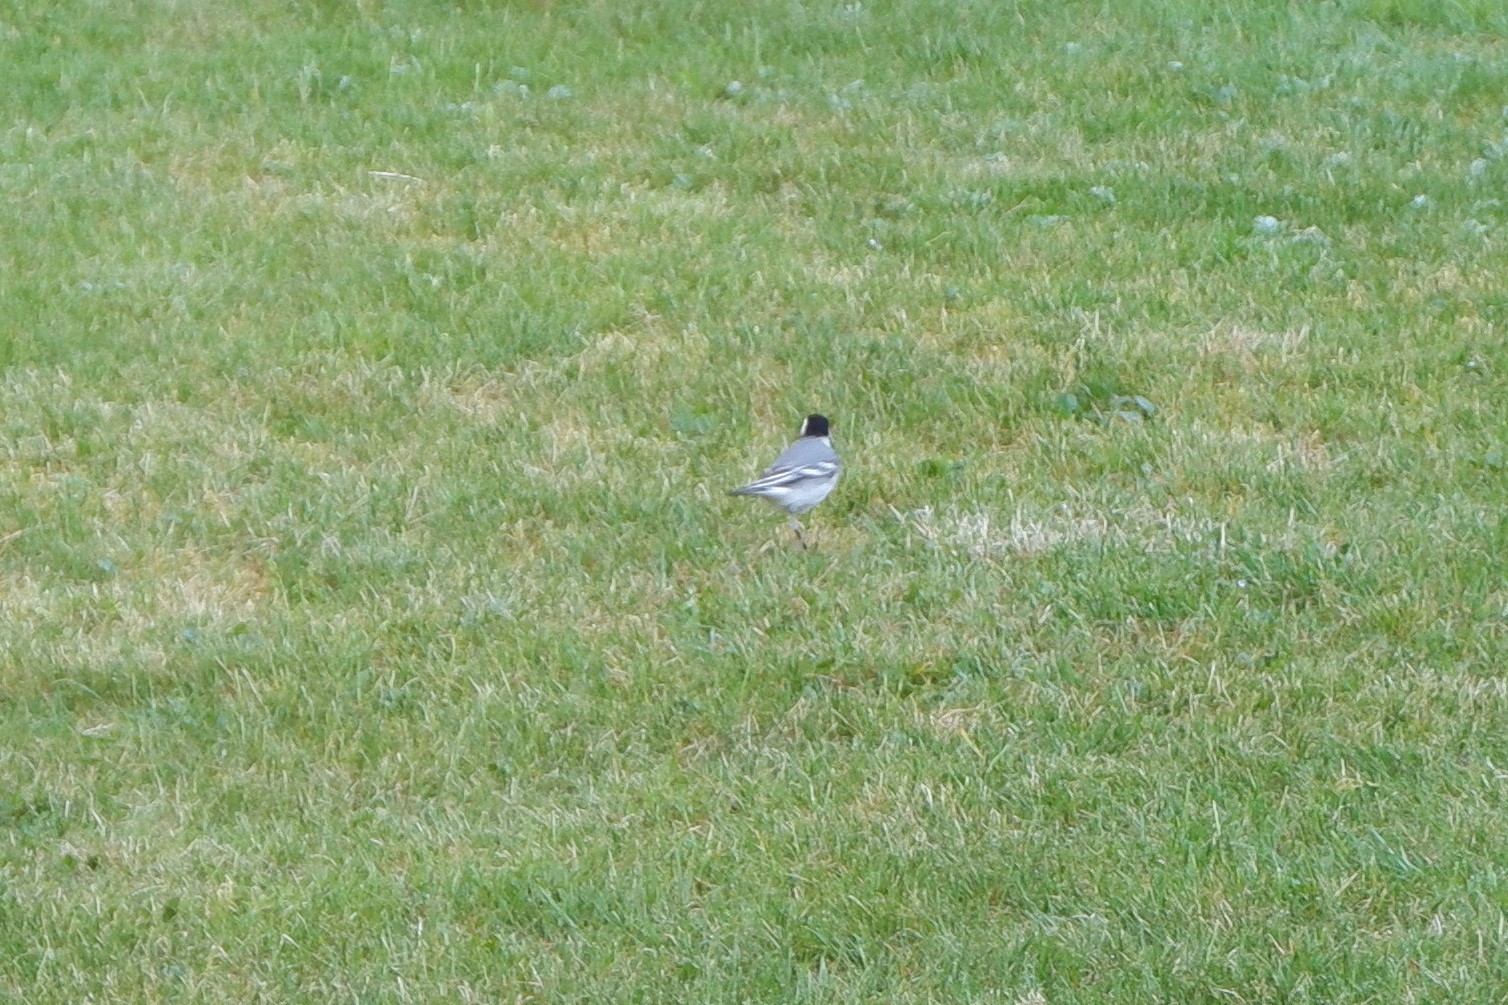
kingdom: Animalia
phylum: Chordata
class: Aves
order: Passeriformes
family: Motacillidae
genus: Motacilla
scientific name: Motacilla alba
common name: White wagtail
